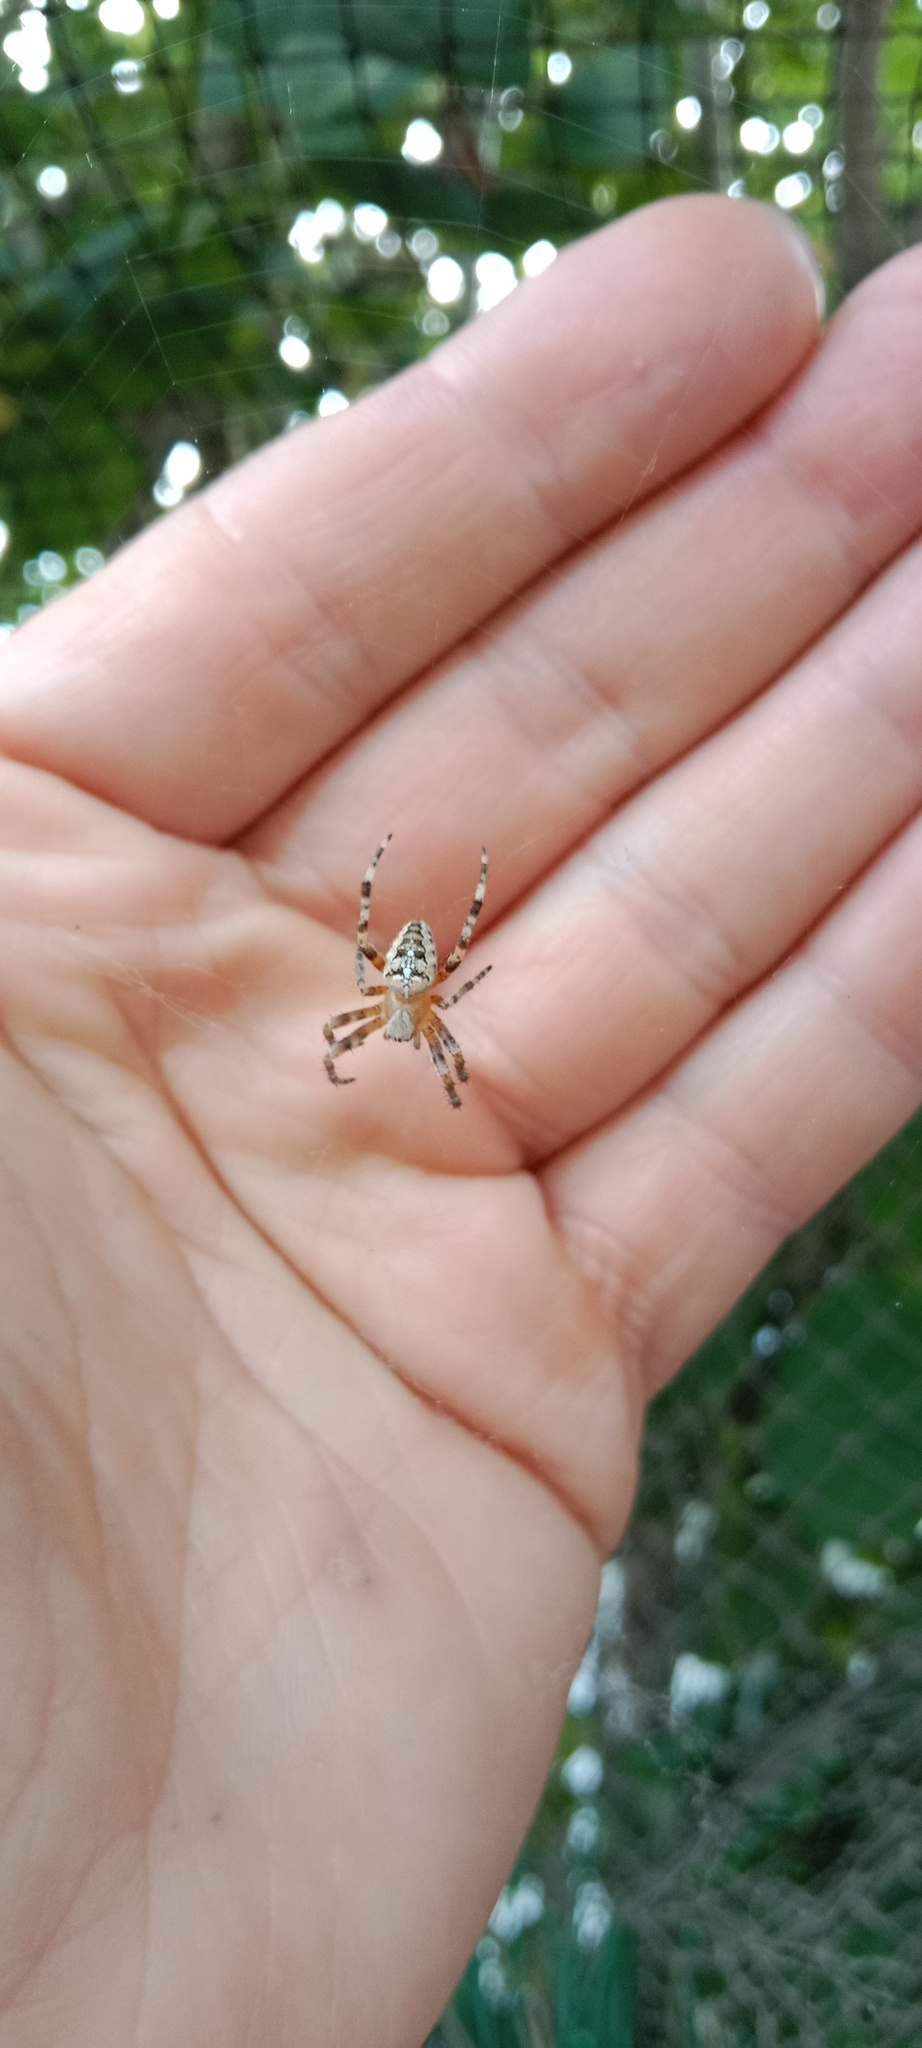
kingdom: Animalia
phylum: Arthropoda
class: Arachnida
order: Araneae
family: Araneidae
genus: Araneus
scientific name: Araneus diadematus
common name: Cross orbweaver
